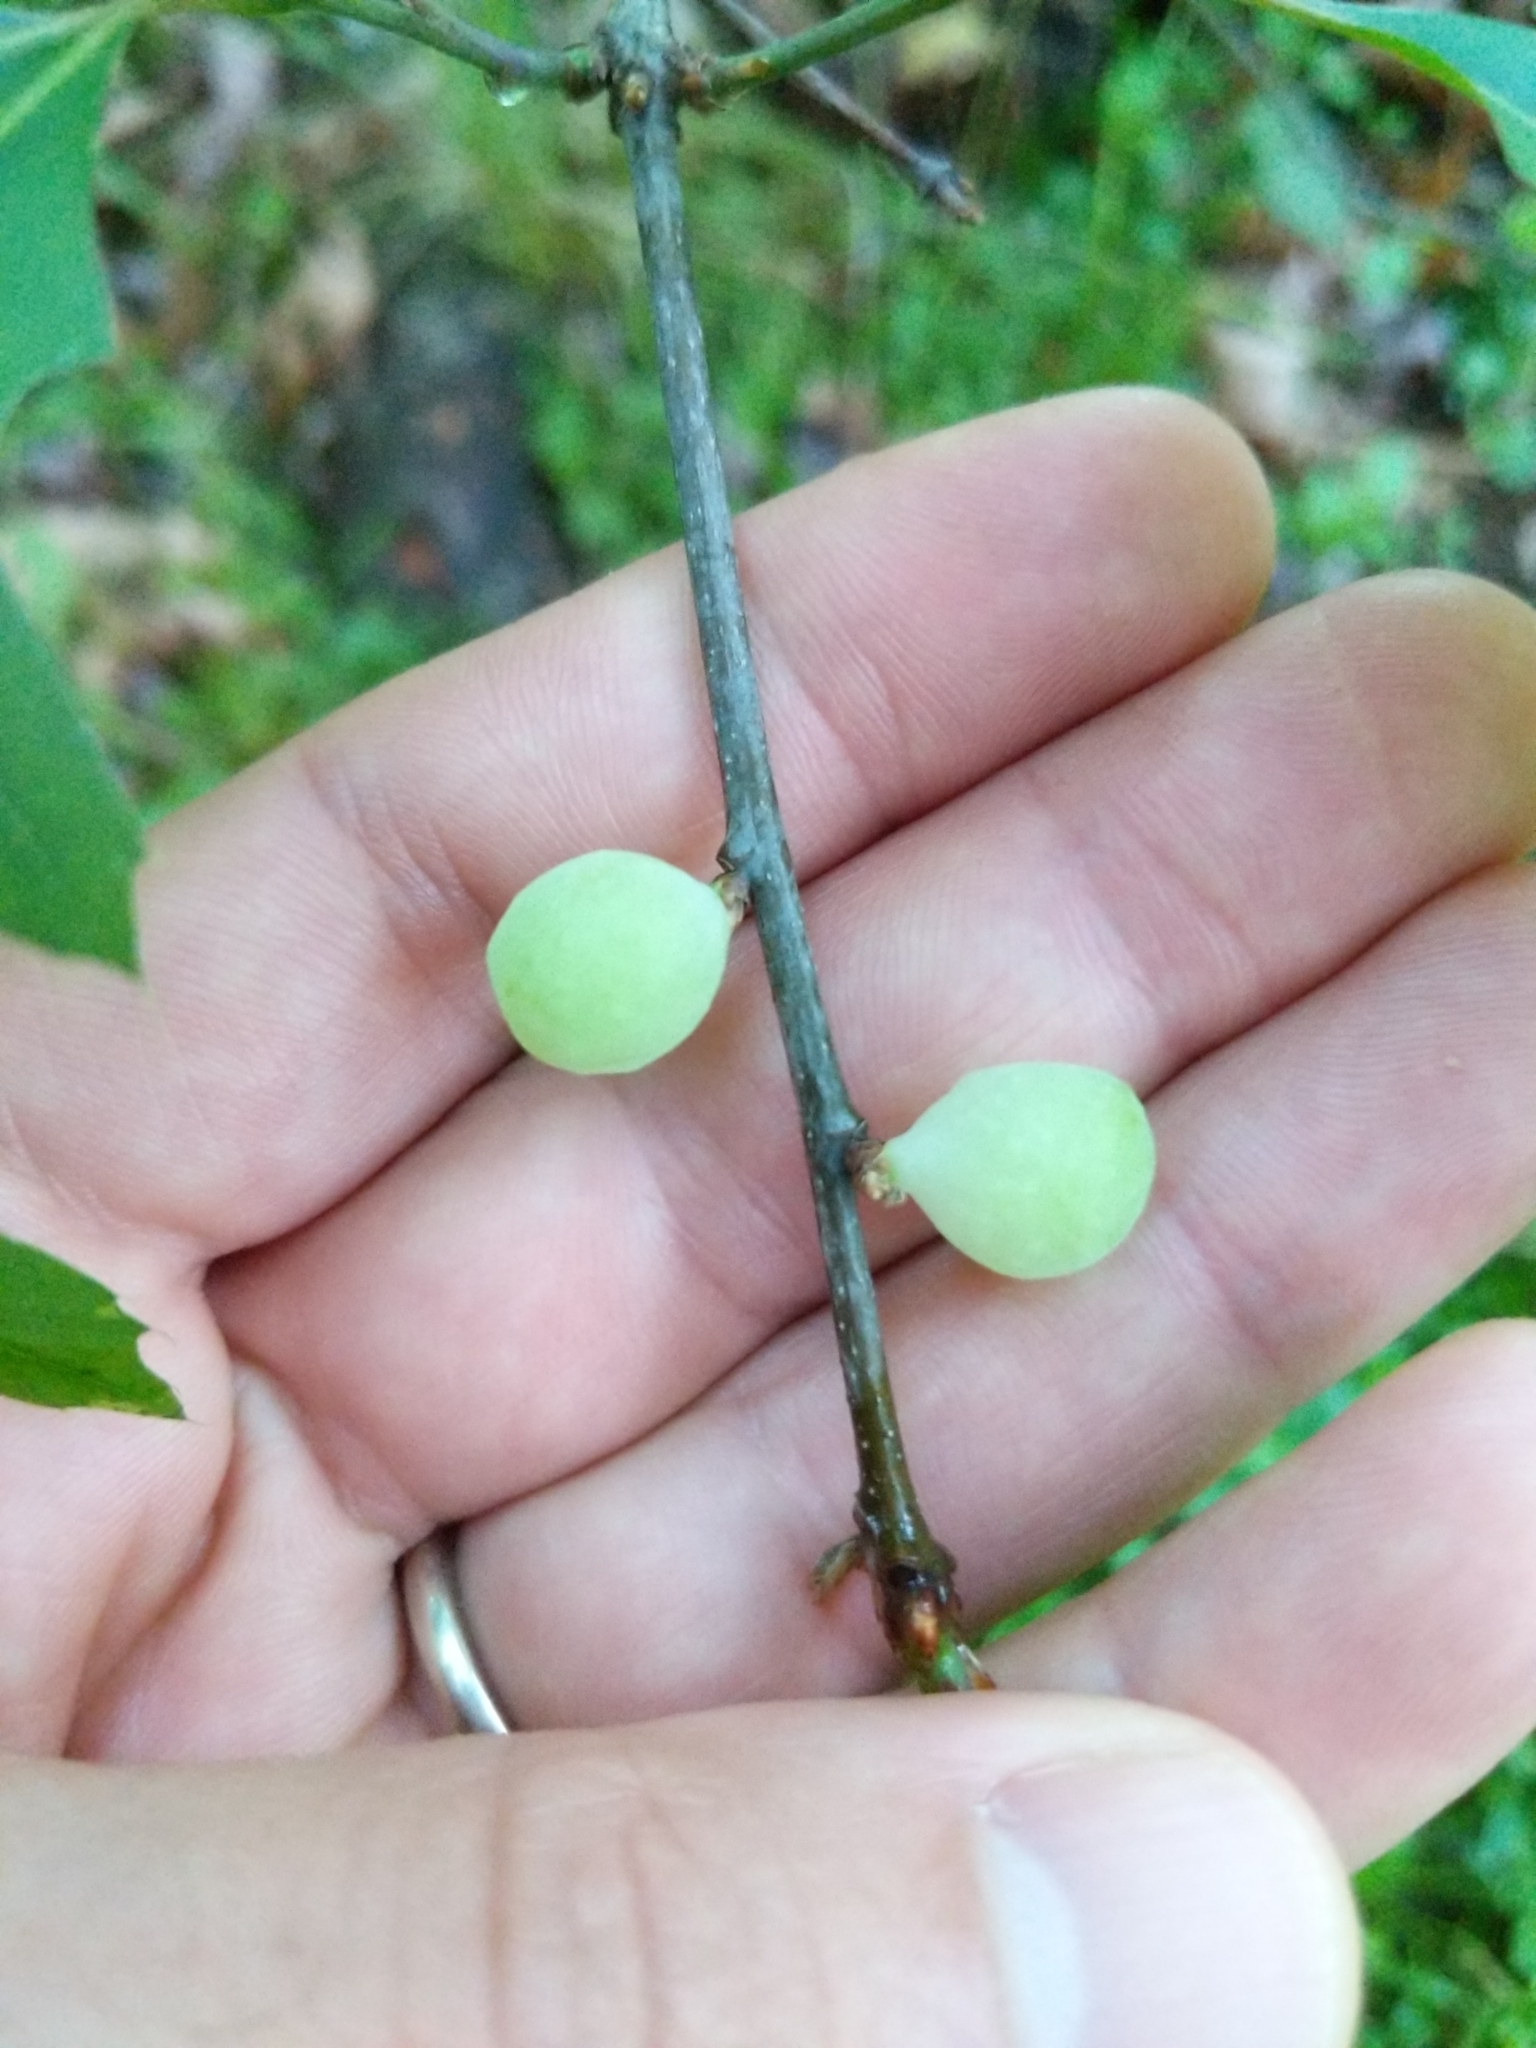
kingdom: Animalia
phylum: Arthropoda
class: Insecta
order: Hymenoptera
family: Cynipidae
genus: Amphibolips
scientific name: Amphibolips
